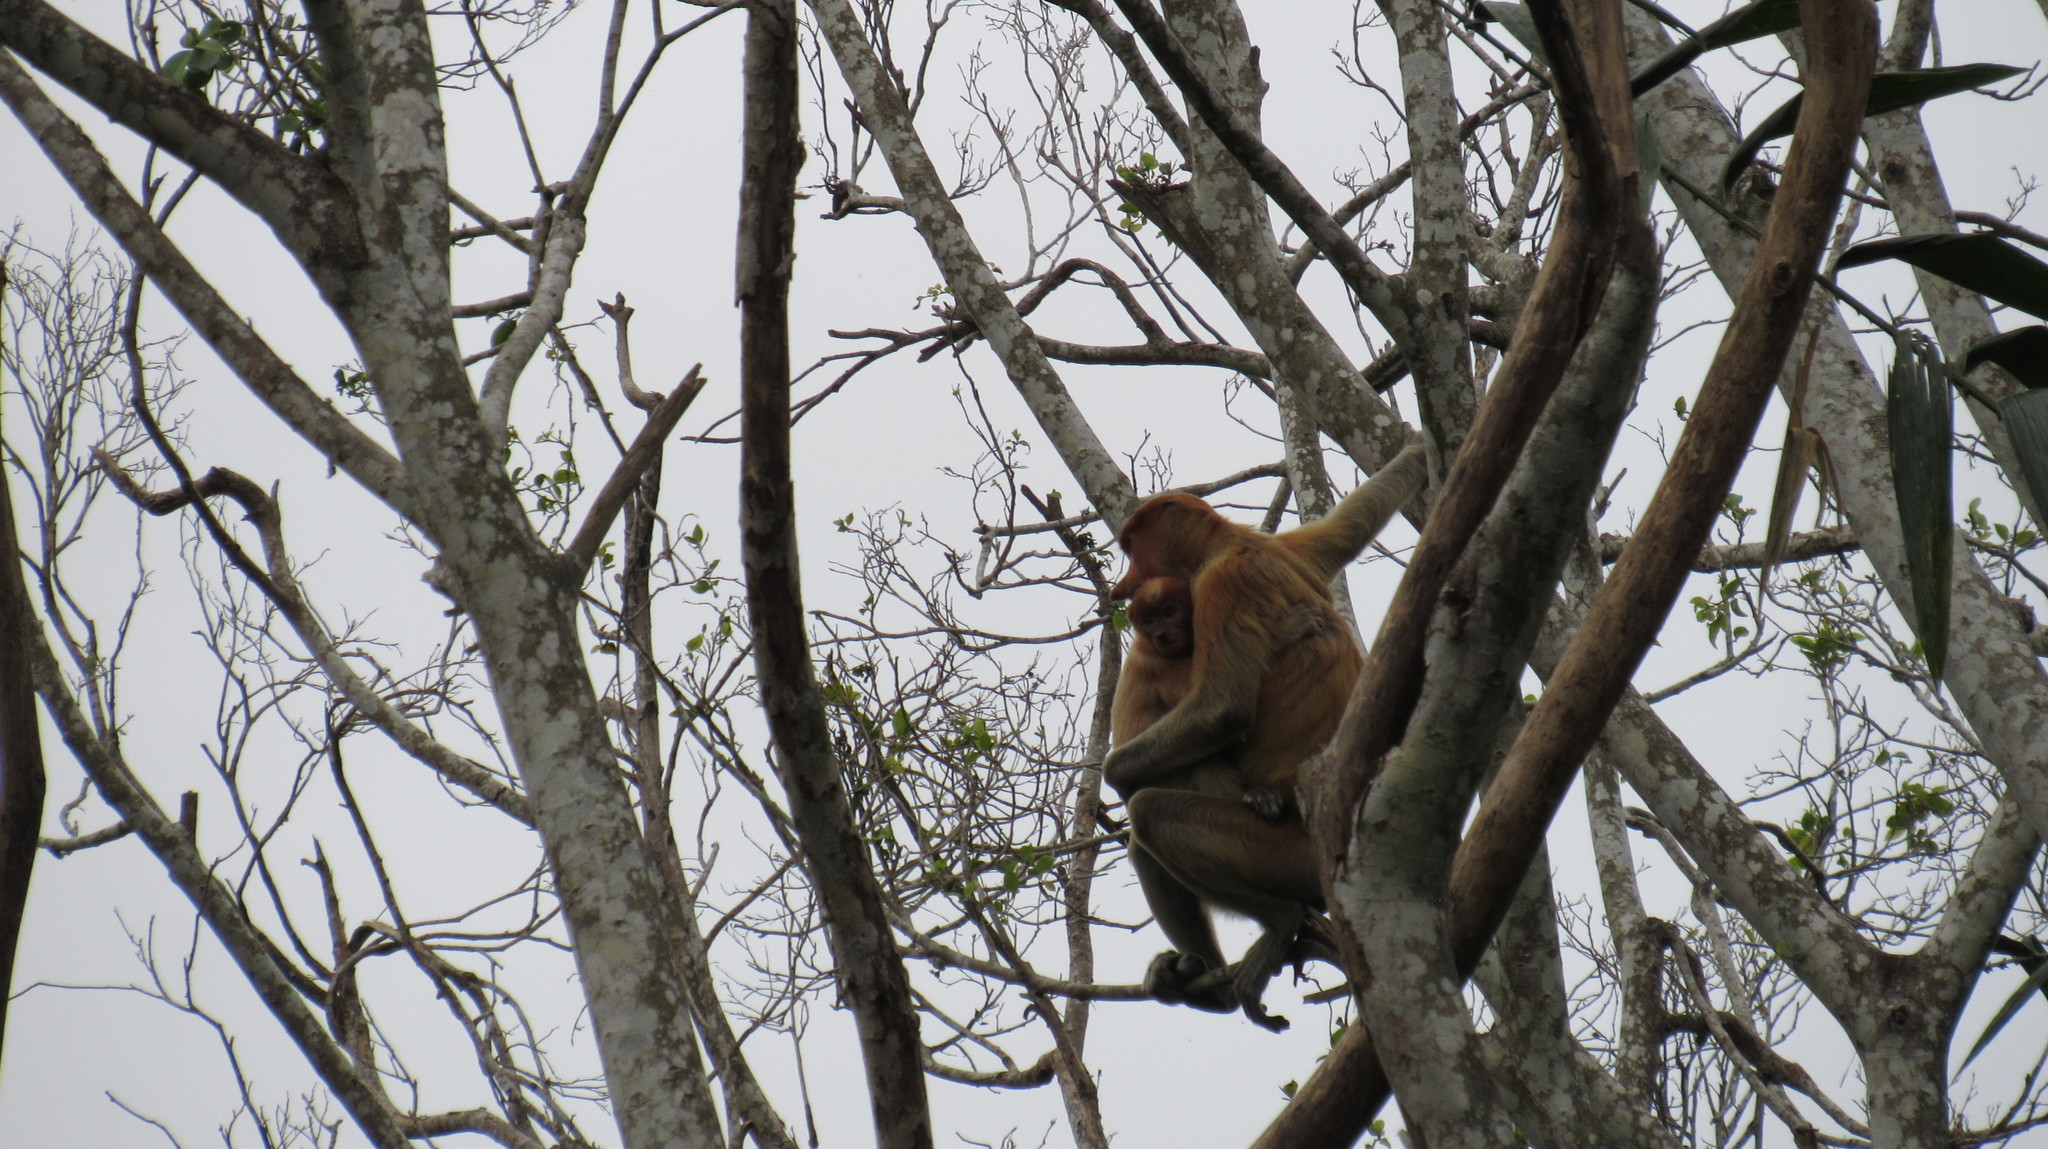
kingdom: Animalia
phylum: Chordata
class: Mammalia
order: Primates
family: Cercopithecidae
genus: Nasalis
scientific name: Nasalis larvatus
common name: Proboscis monkey
